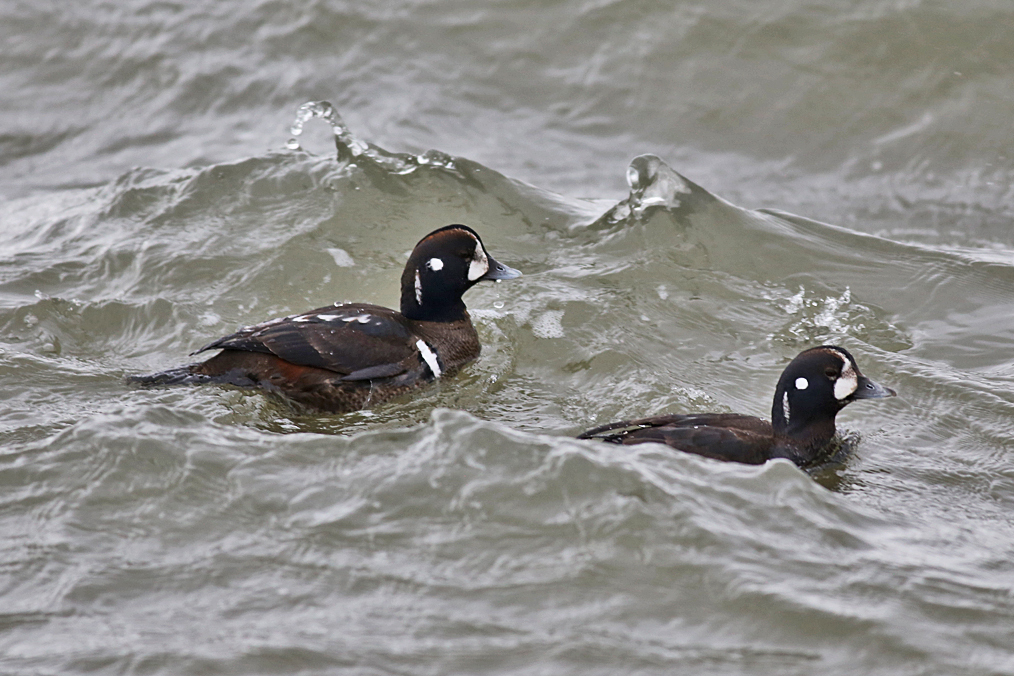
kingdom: Animalia
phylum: Chordata
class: Aves
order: Anseriformes
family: Anatidae
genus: Histrionicus
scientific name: Histrionicus histrionicus
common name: Harlequin duck
